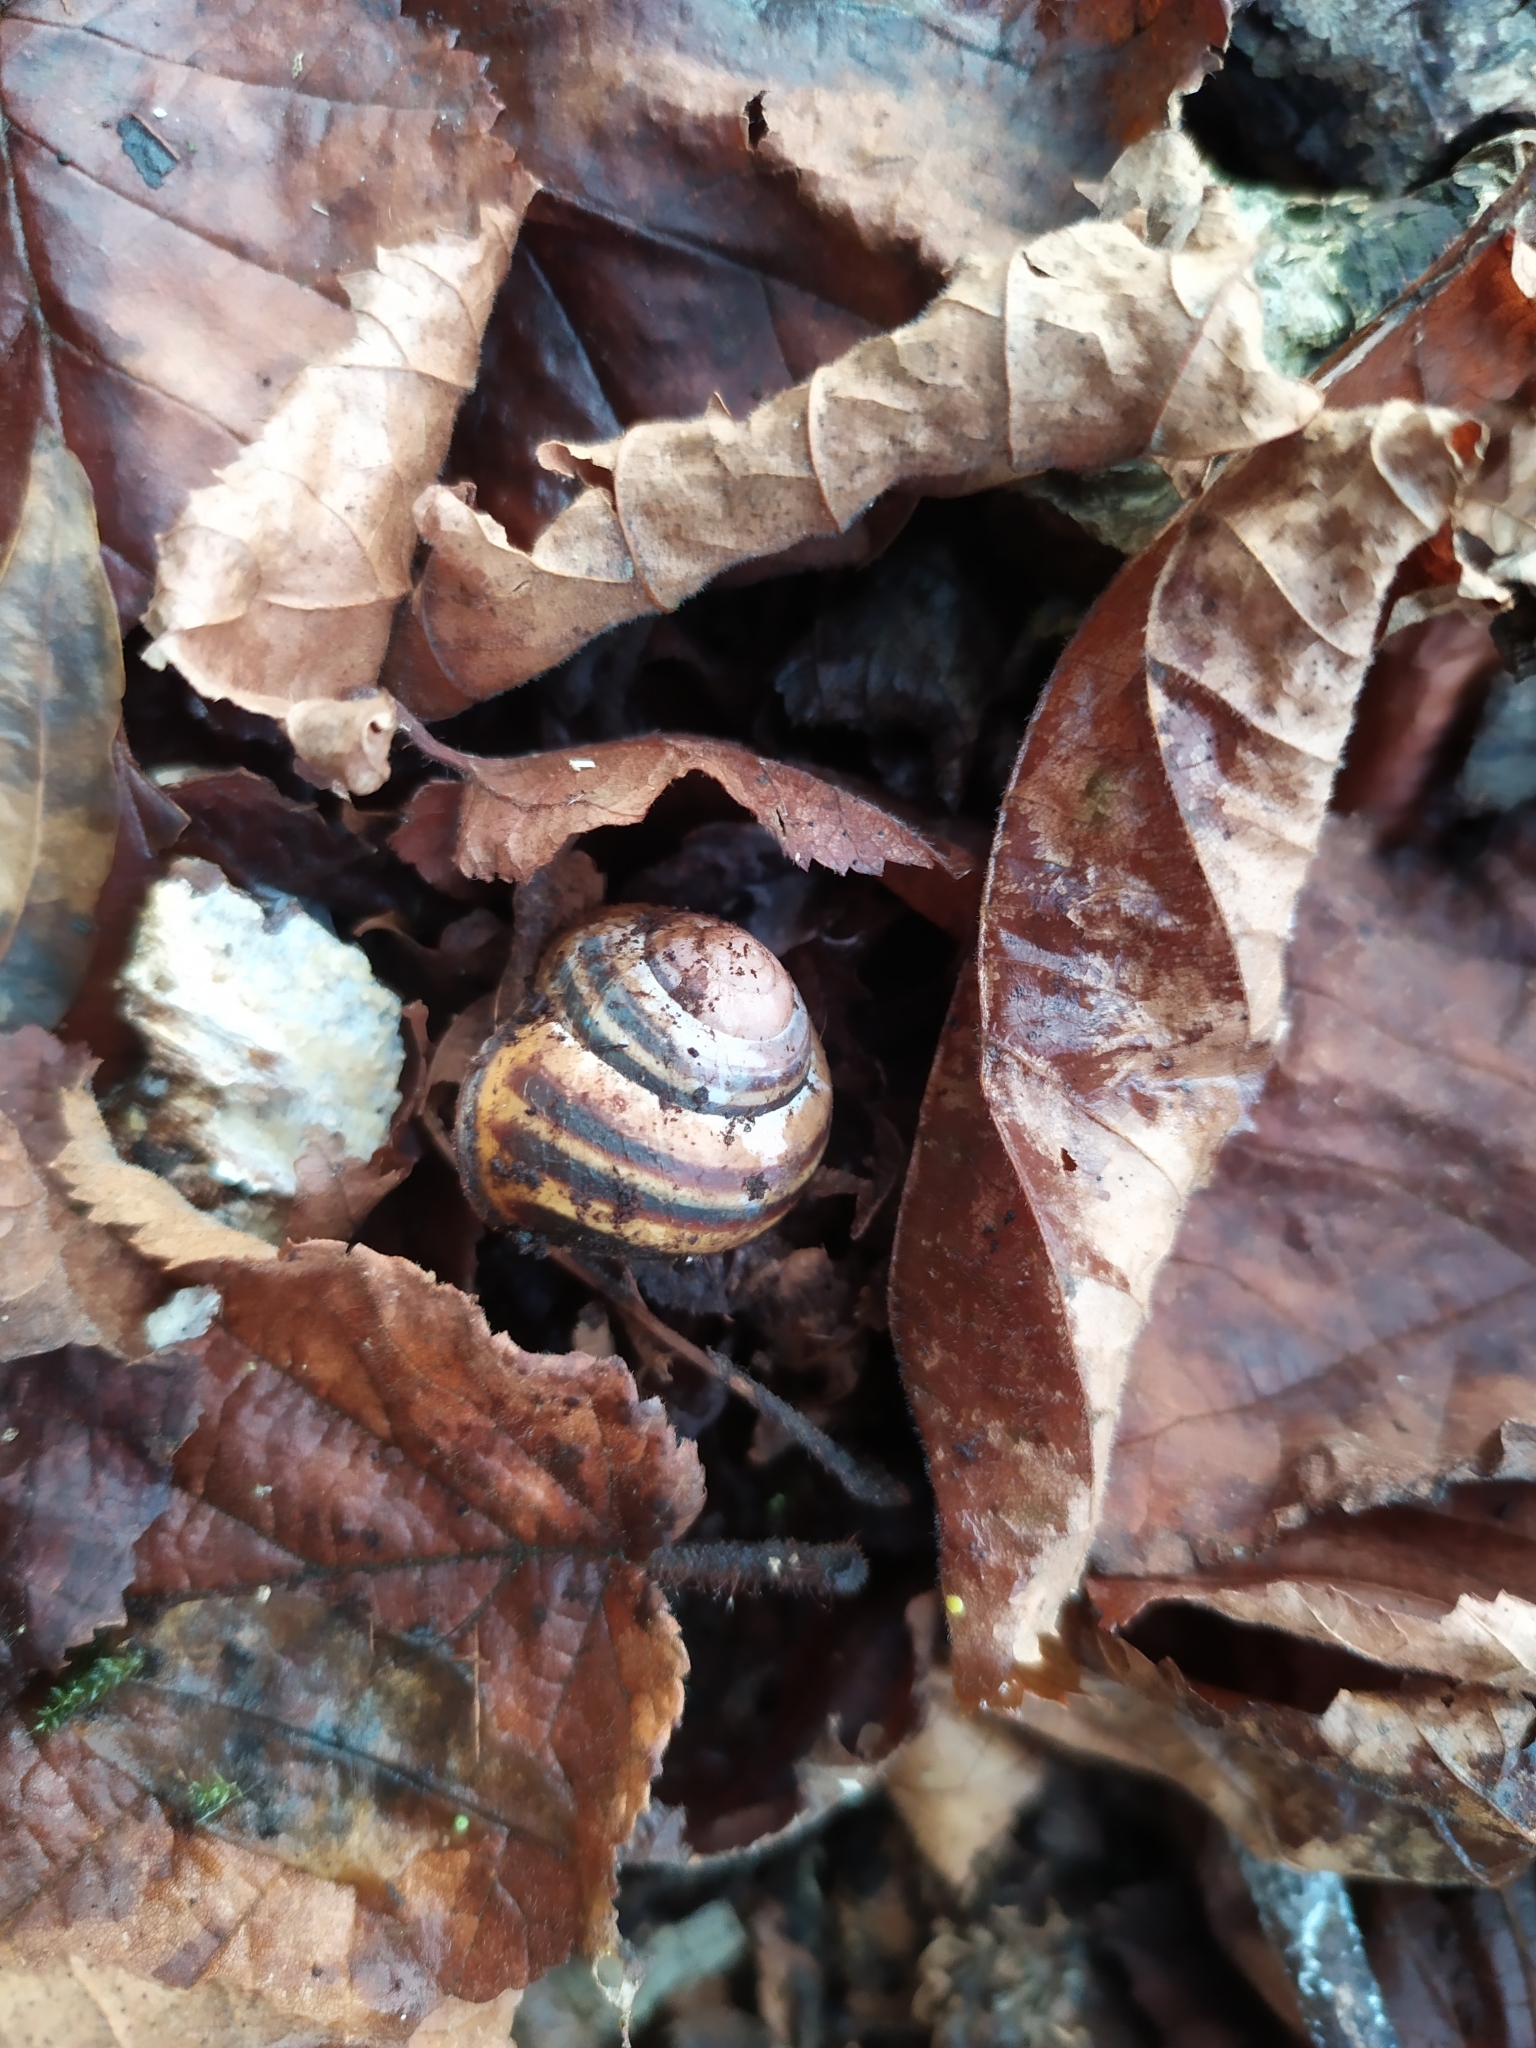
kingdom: Animalia
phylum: Mollusca
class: Gastropoda
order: Stylommatophora
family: Helicidae
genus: Cepaea
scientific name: Cepaea nemoralis
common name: Grovesnail
